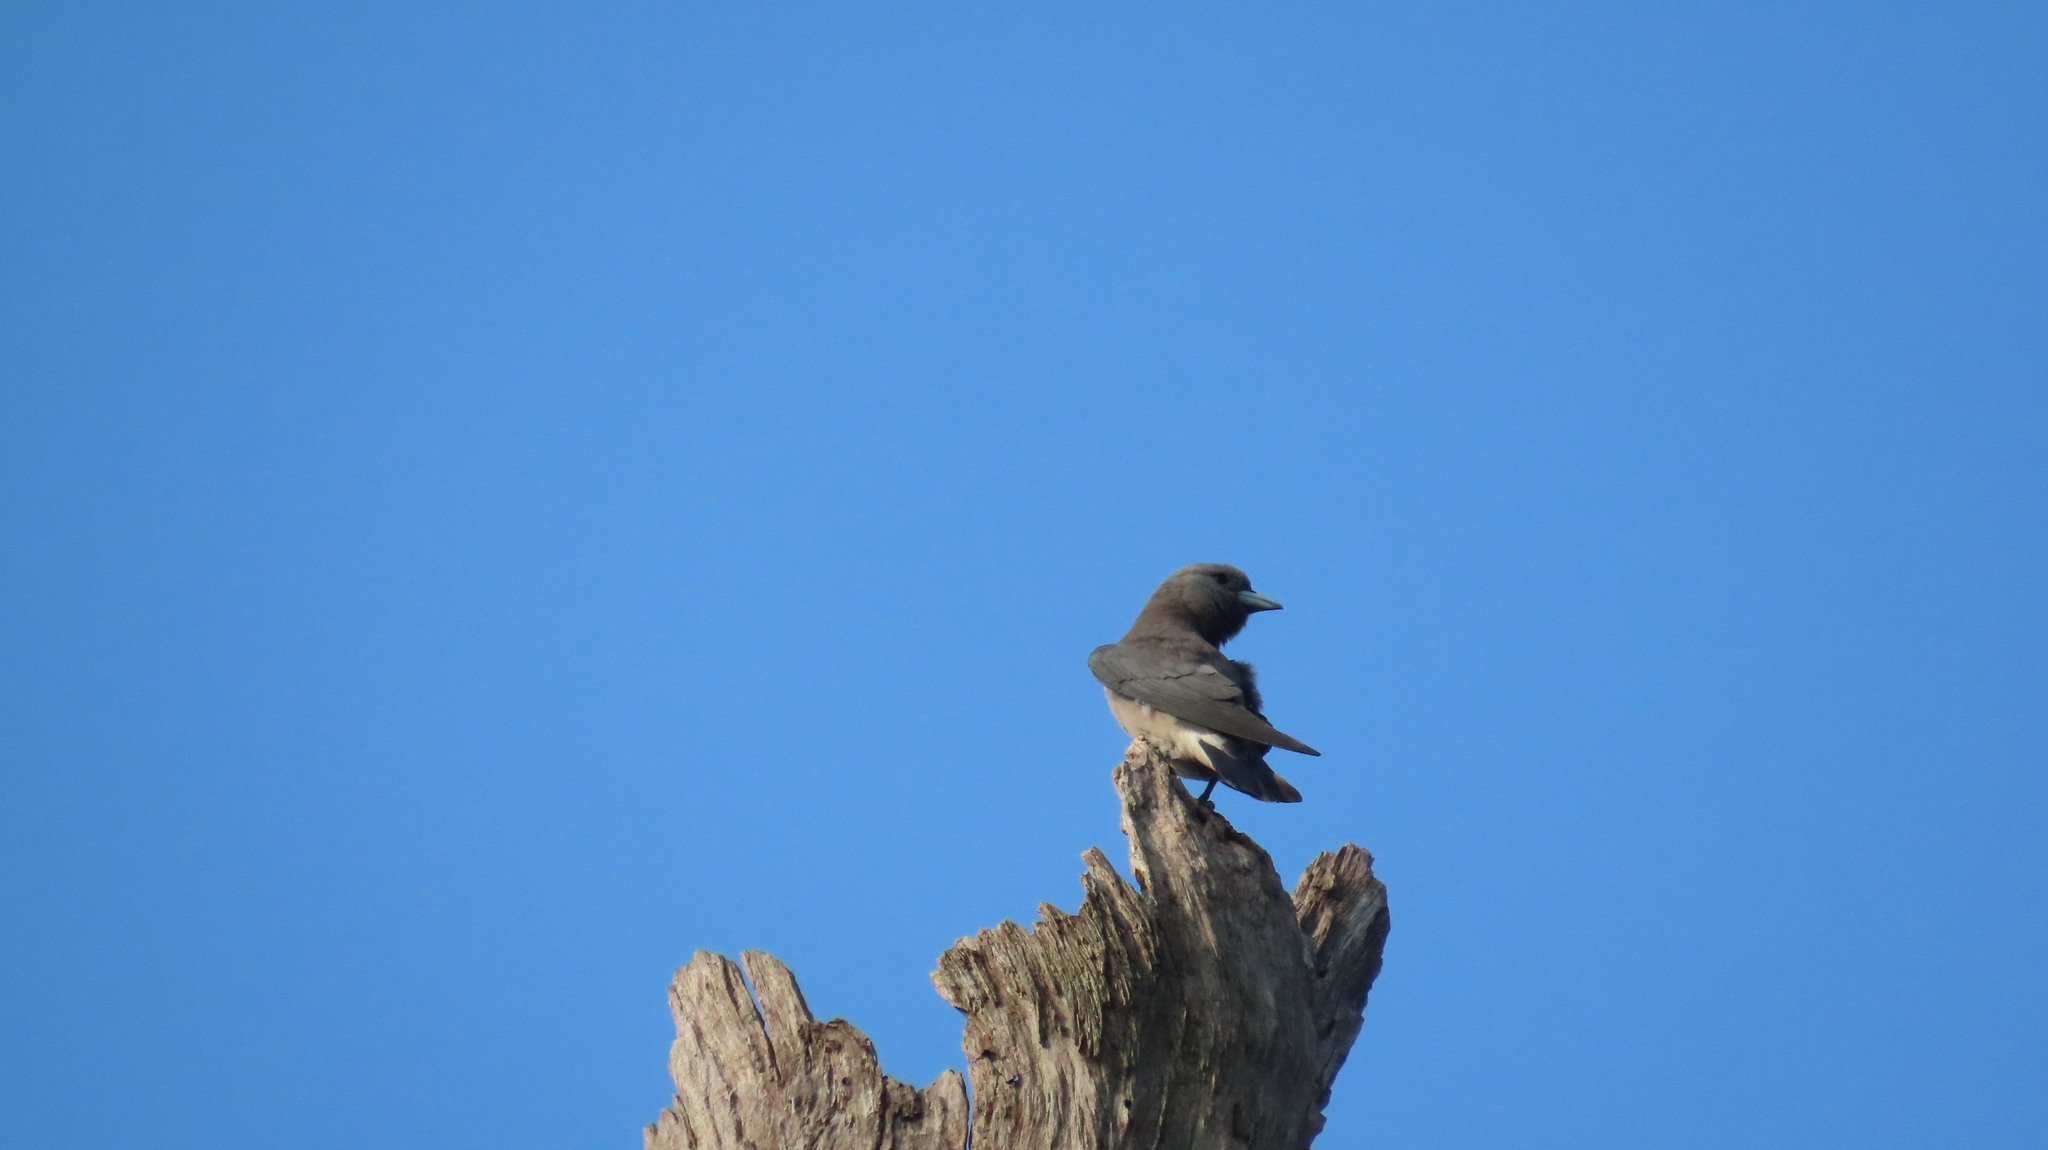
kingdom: Animalia
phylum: Chordata
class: Aves
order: Passeriformes
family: Artamidae
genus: Artamus
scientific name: Artamus fuscus
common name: Ashy woodswallow
